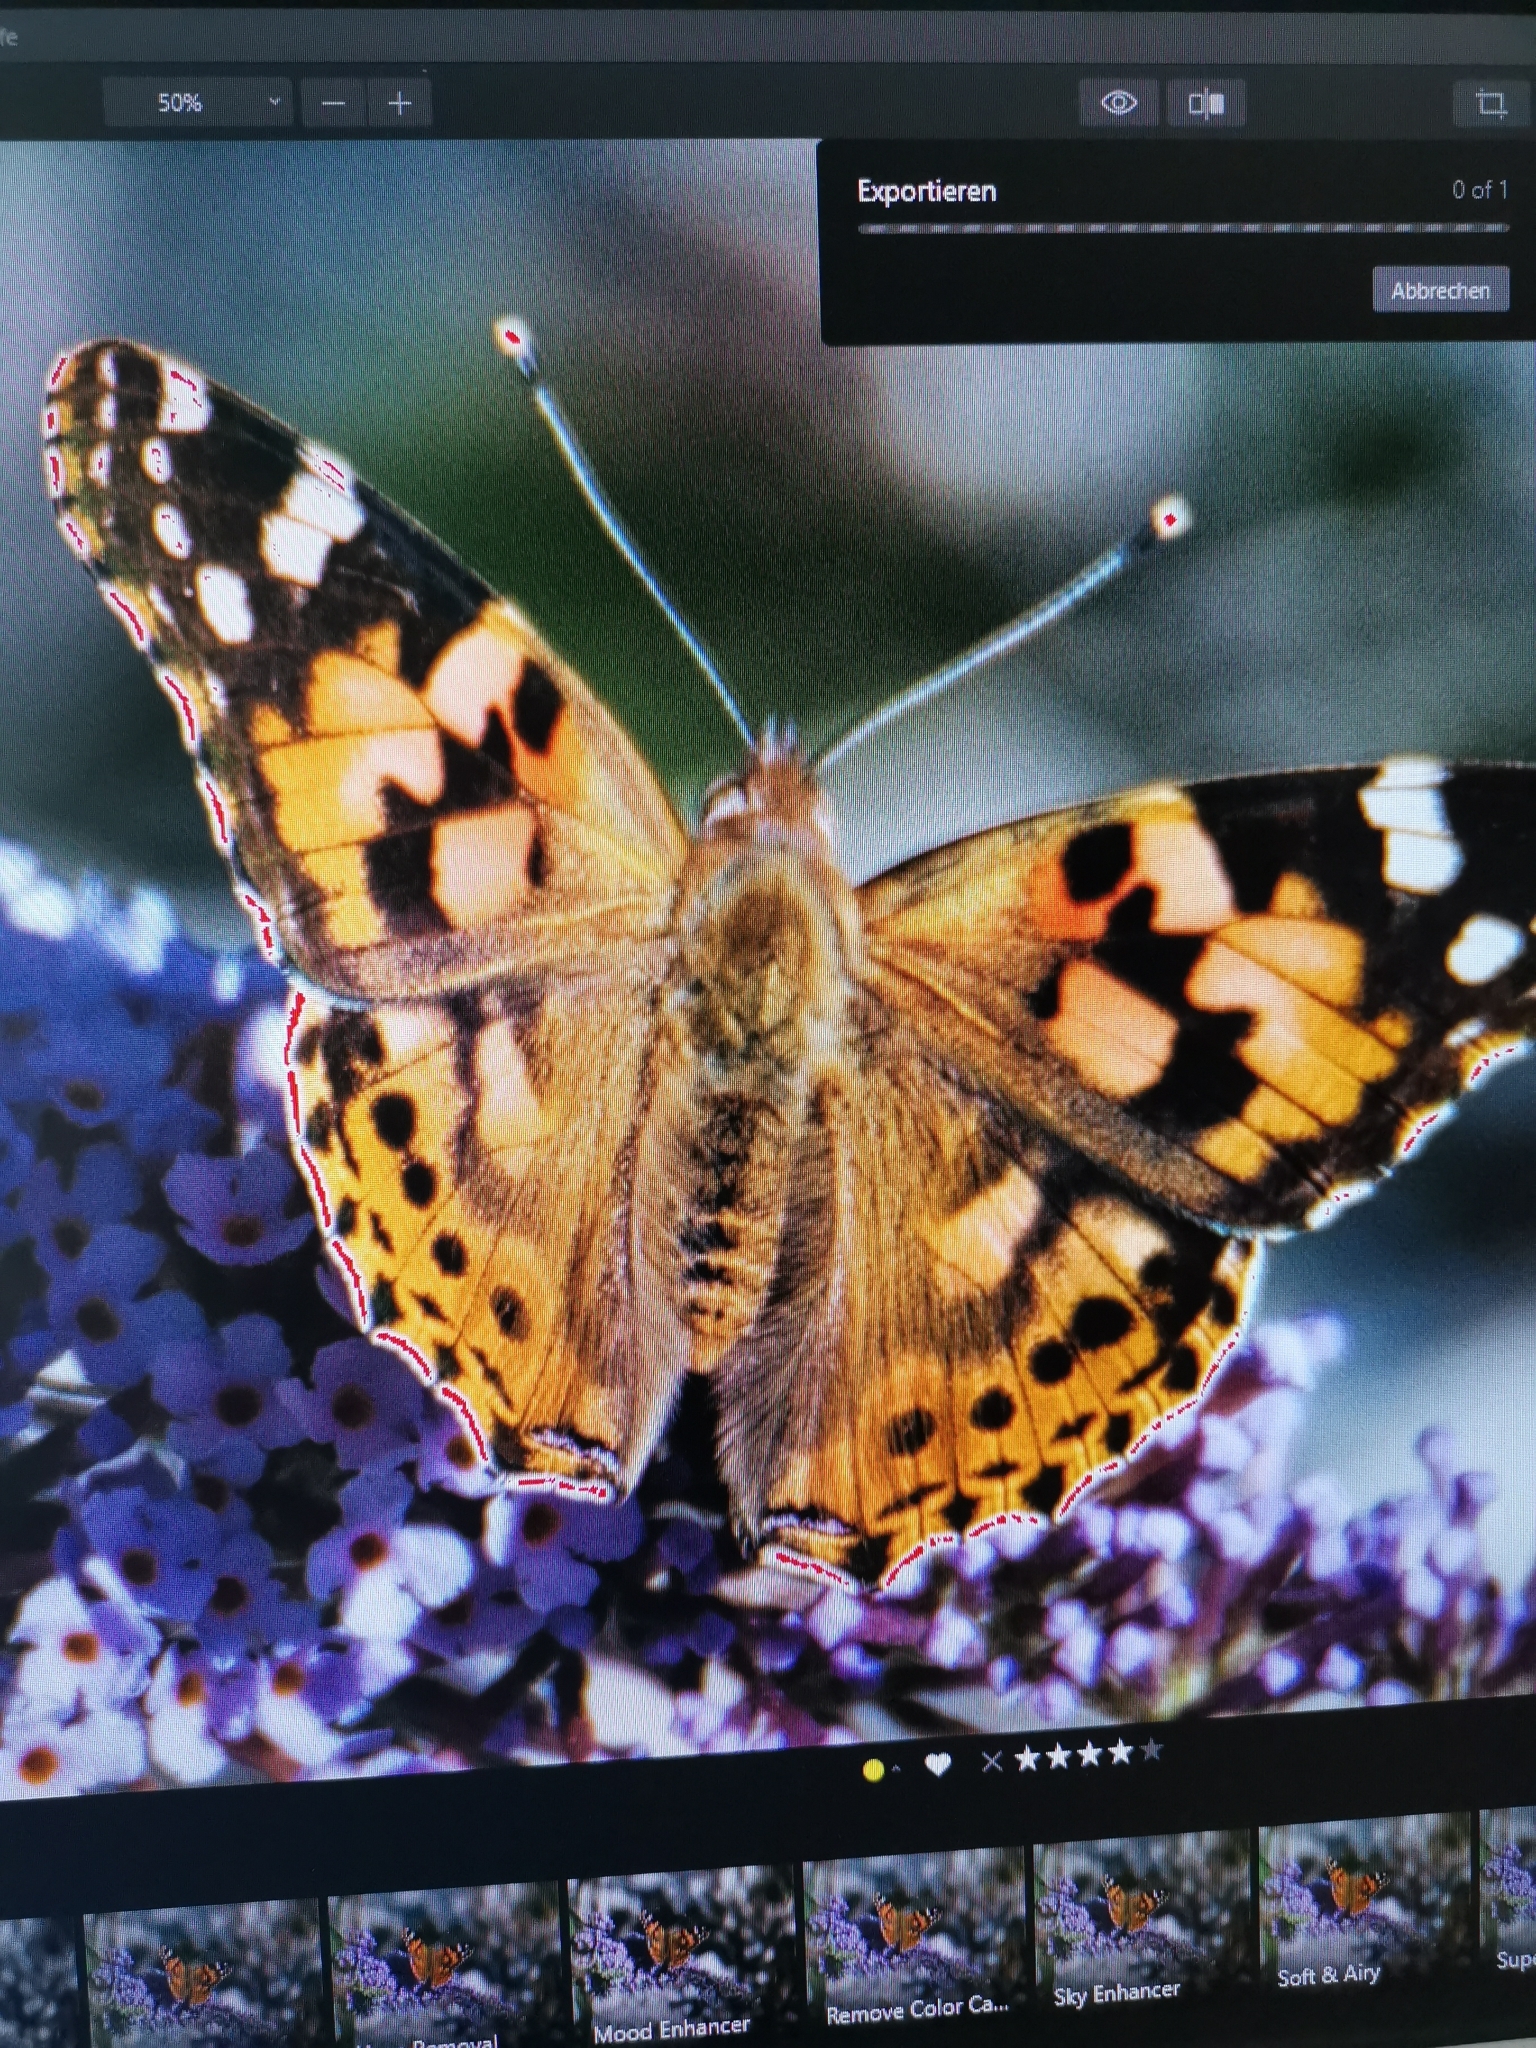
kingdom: Animalia
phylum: Arthropoda
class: Insecta
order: Lepidoptera
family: Nymphalidae
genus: Vanessa
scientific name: Vanessa cardui
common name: Painted lady
